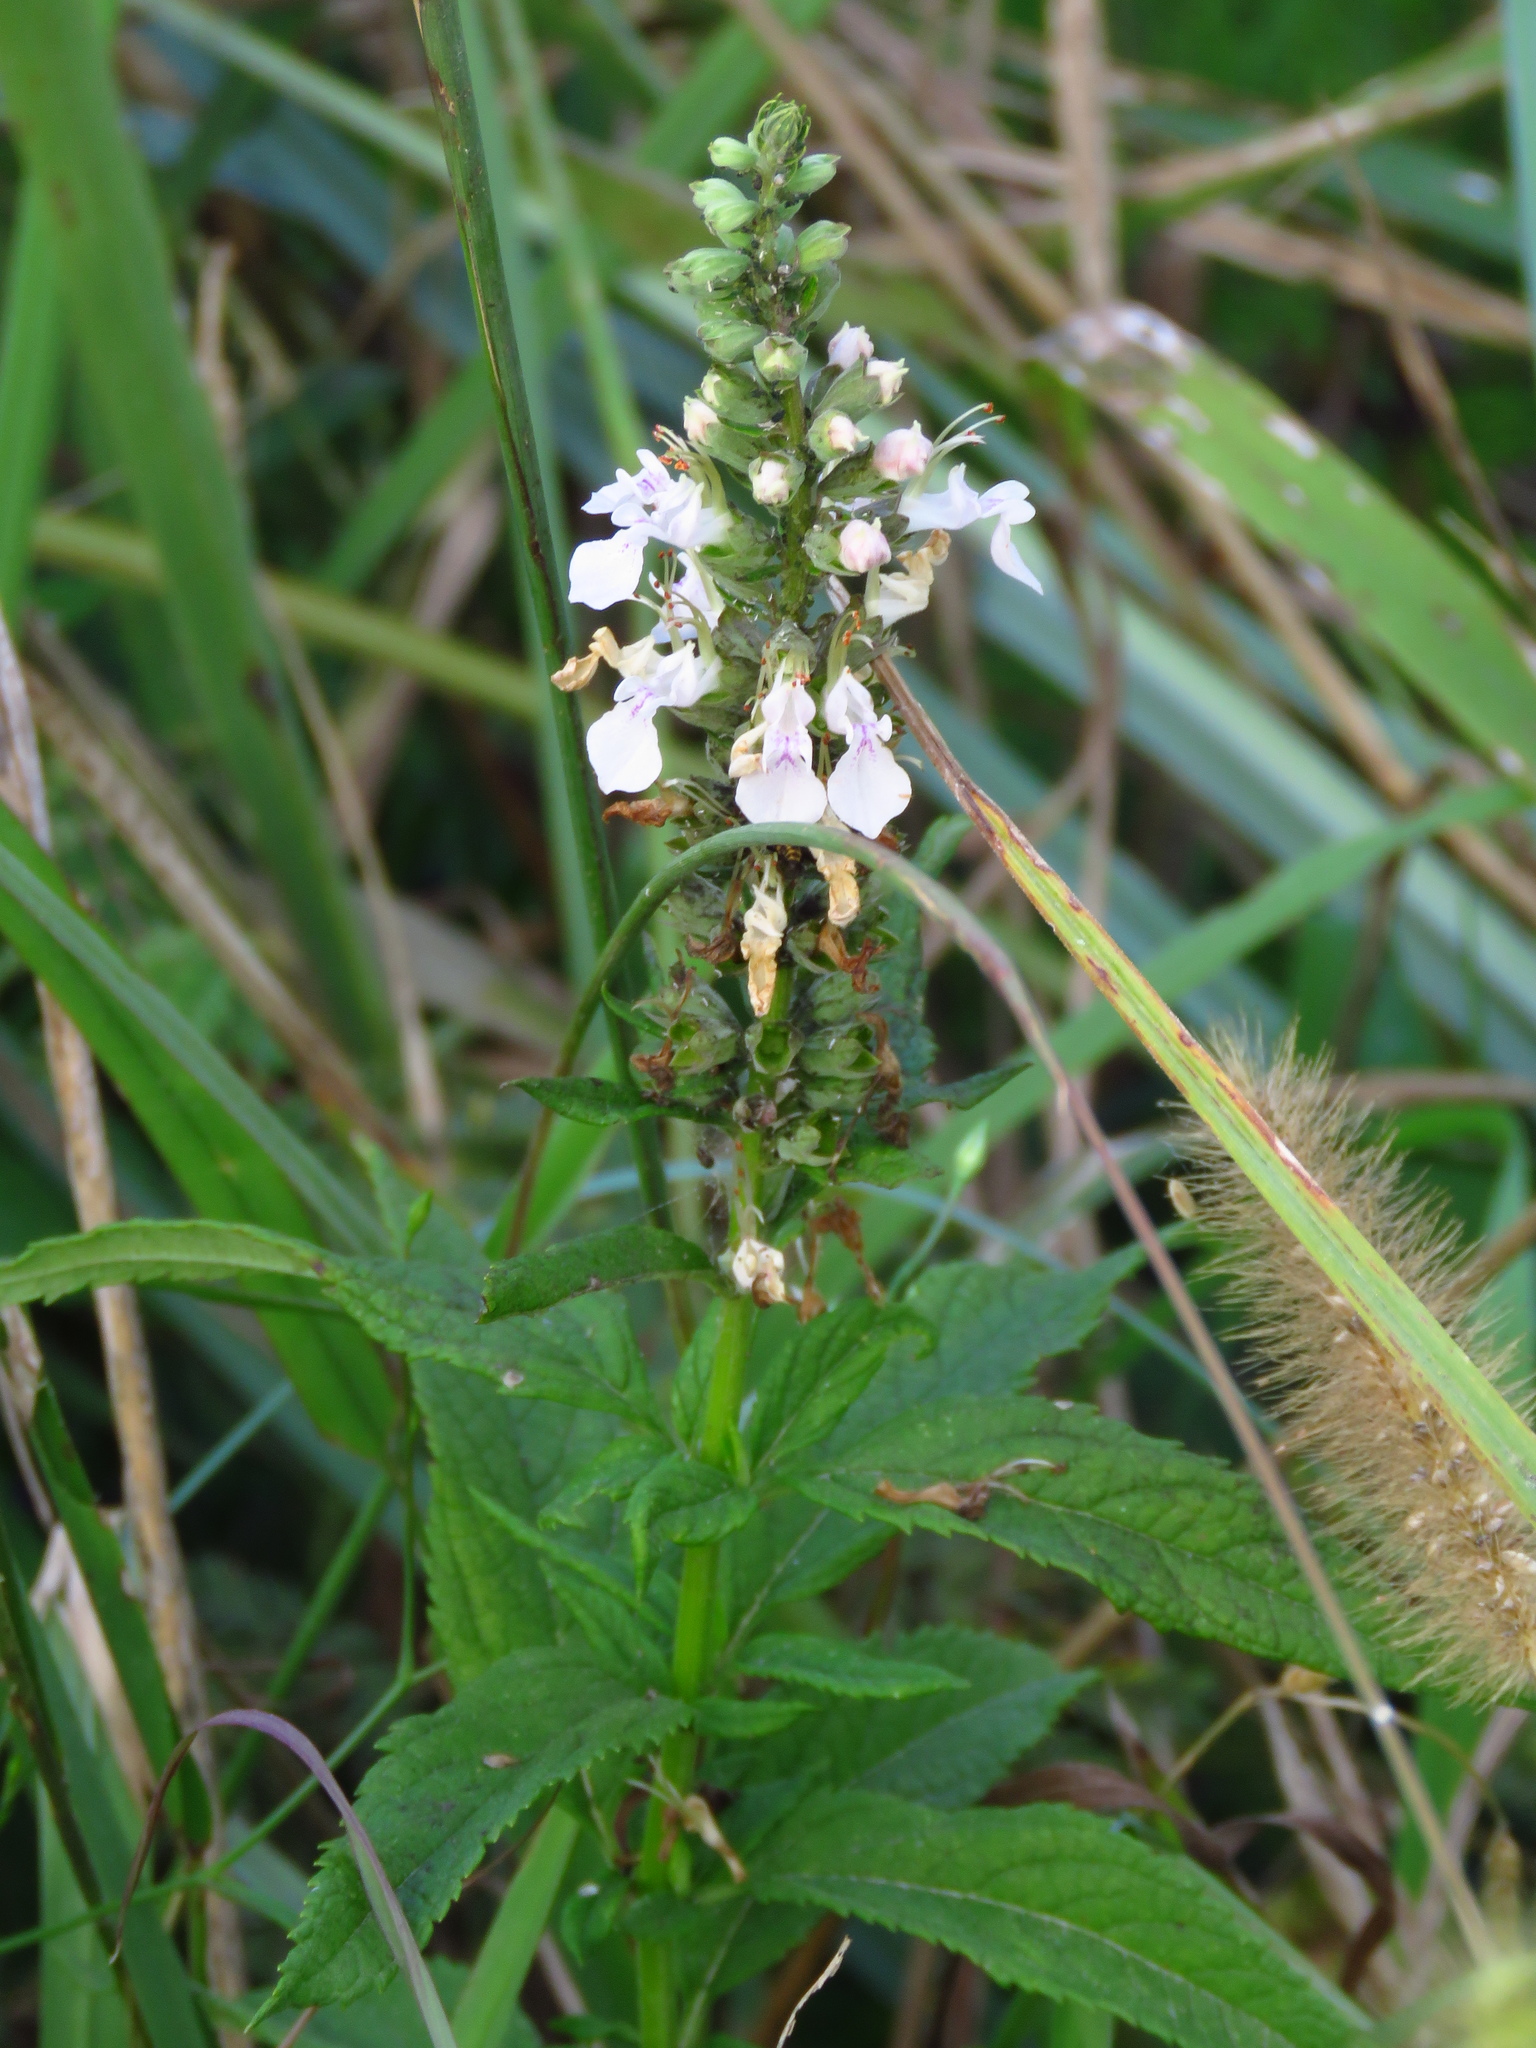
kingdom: Plantae
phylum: Tracheophyta
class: Magnoliopsida
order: Lamiales
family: Lamiaceae
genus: Teucrium
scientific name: Teucrium canadense
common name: American germander
